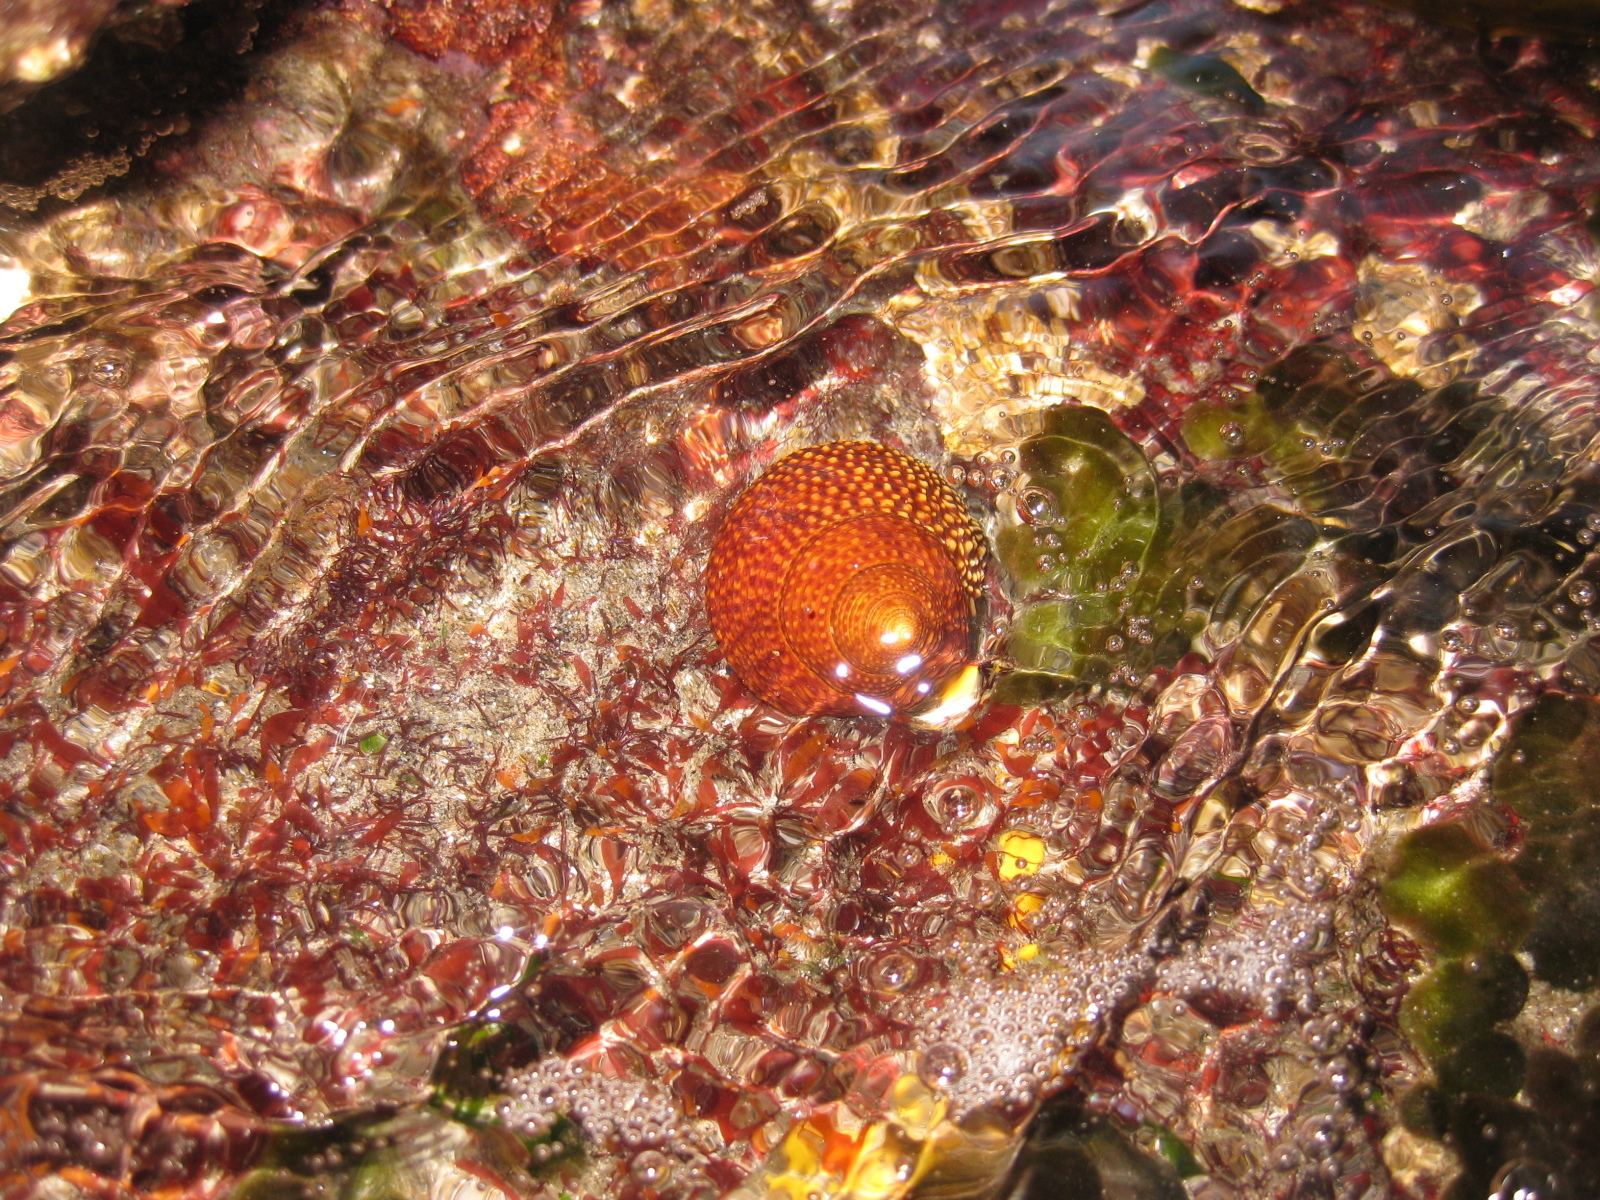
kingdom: Animalia
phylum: Mollusca
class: Gastropoda
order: Trochida
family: Calliostomatidae
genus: Maurea
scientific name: Maurea punctulata
